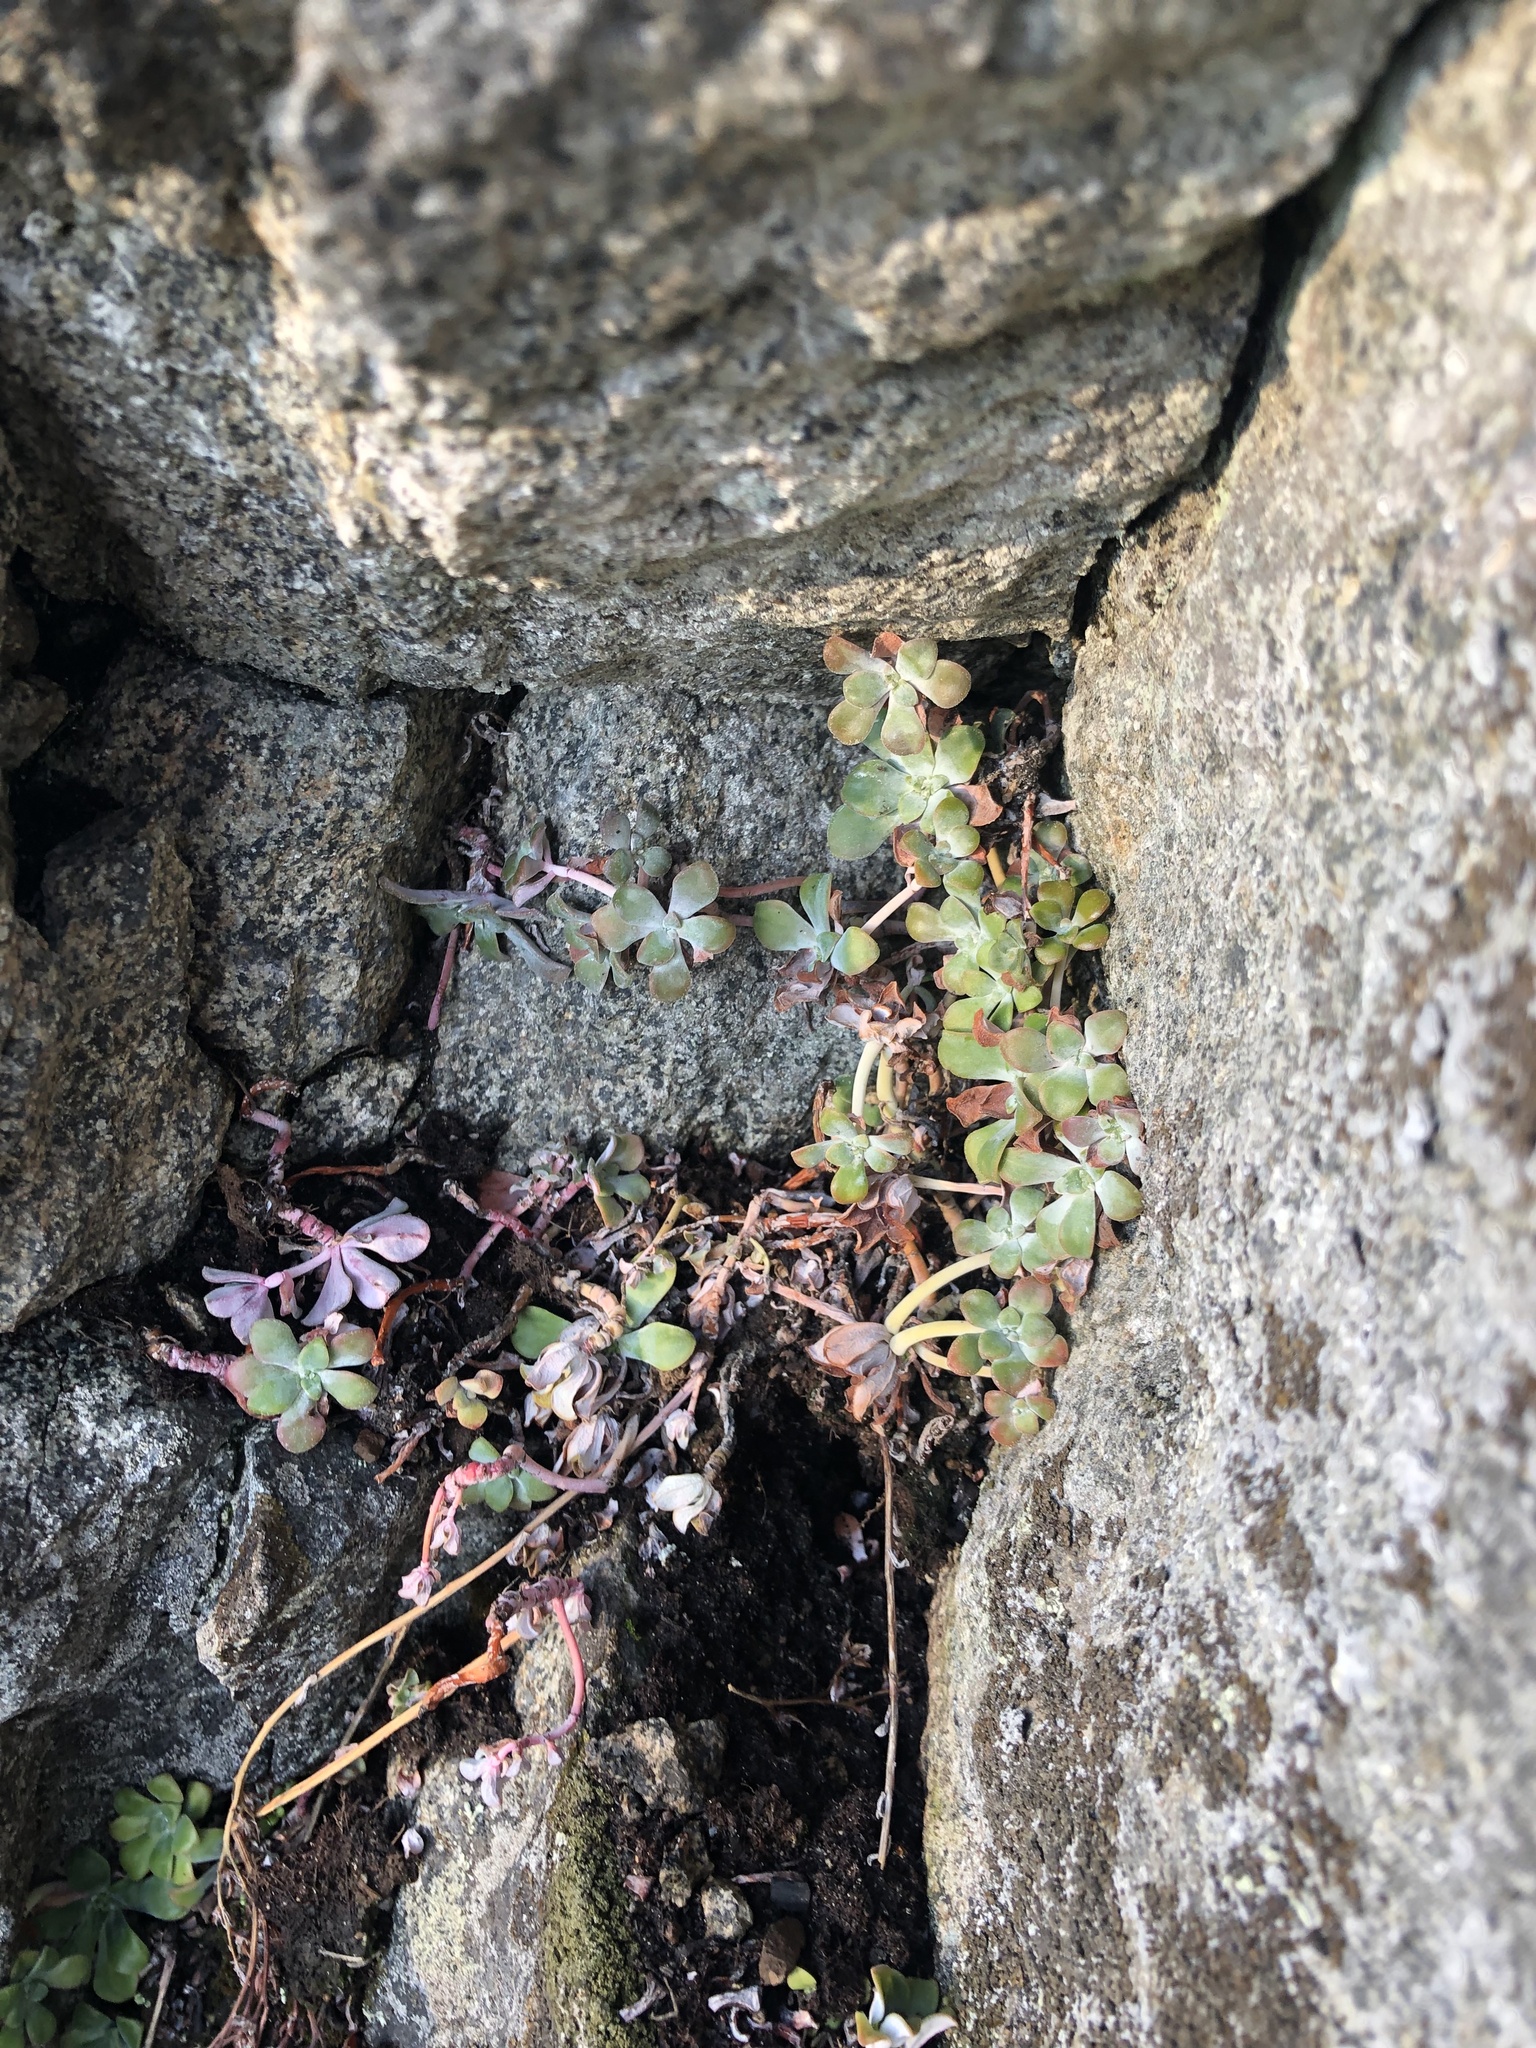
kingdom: Plantae
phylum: Tracheophyta
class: Magnoliopsida
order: Saxifragales
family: Crassulaceae
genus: Sedum
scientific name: Sedum spathulifolium
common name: Colorado stonecrop
